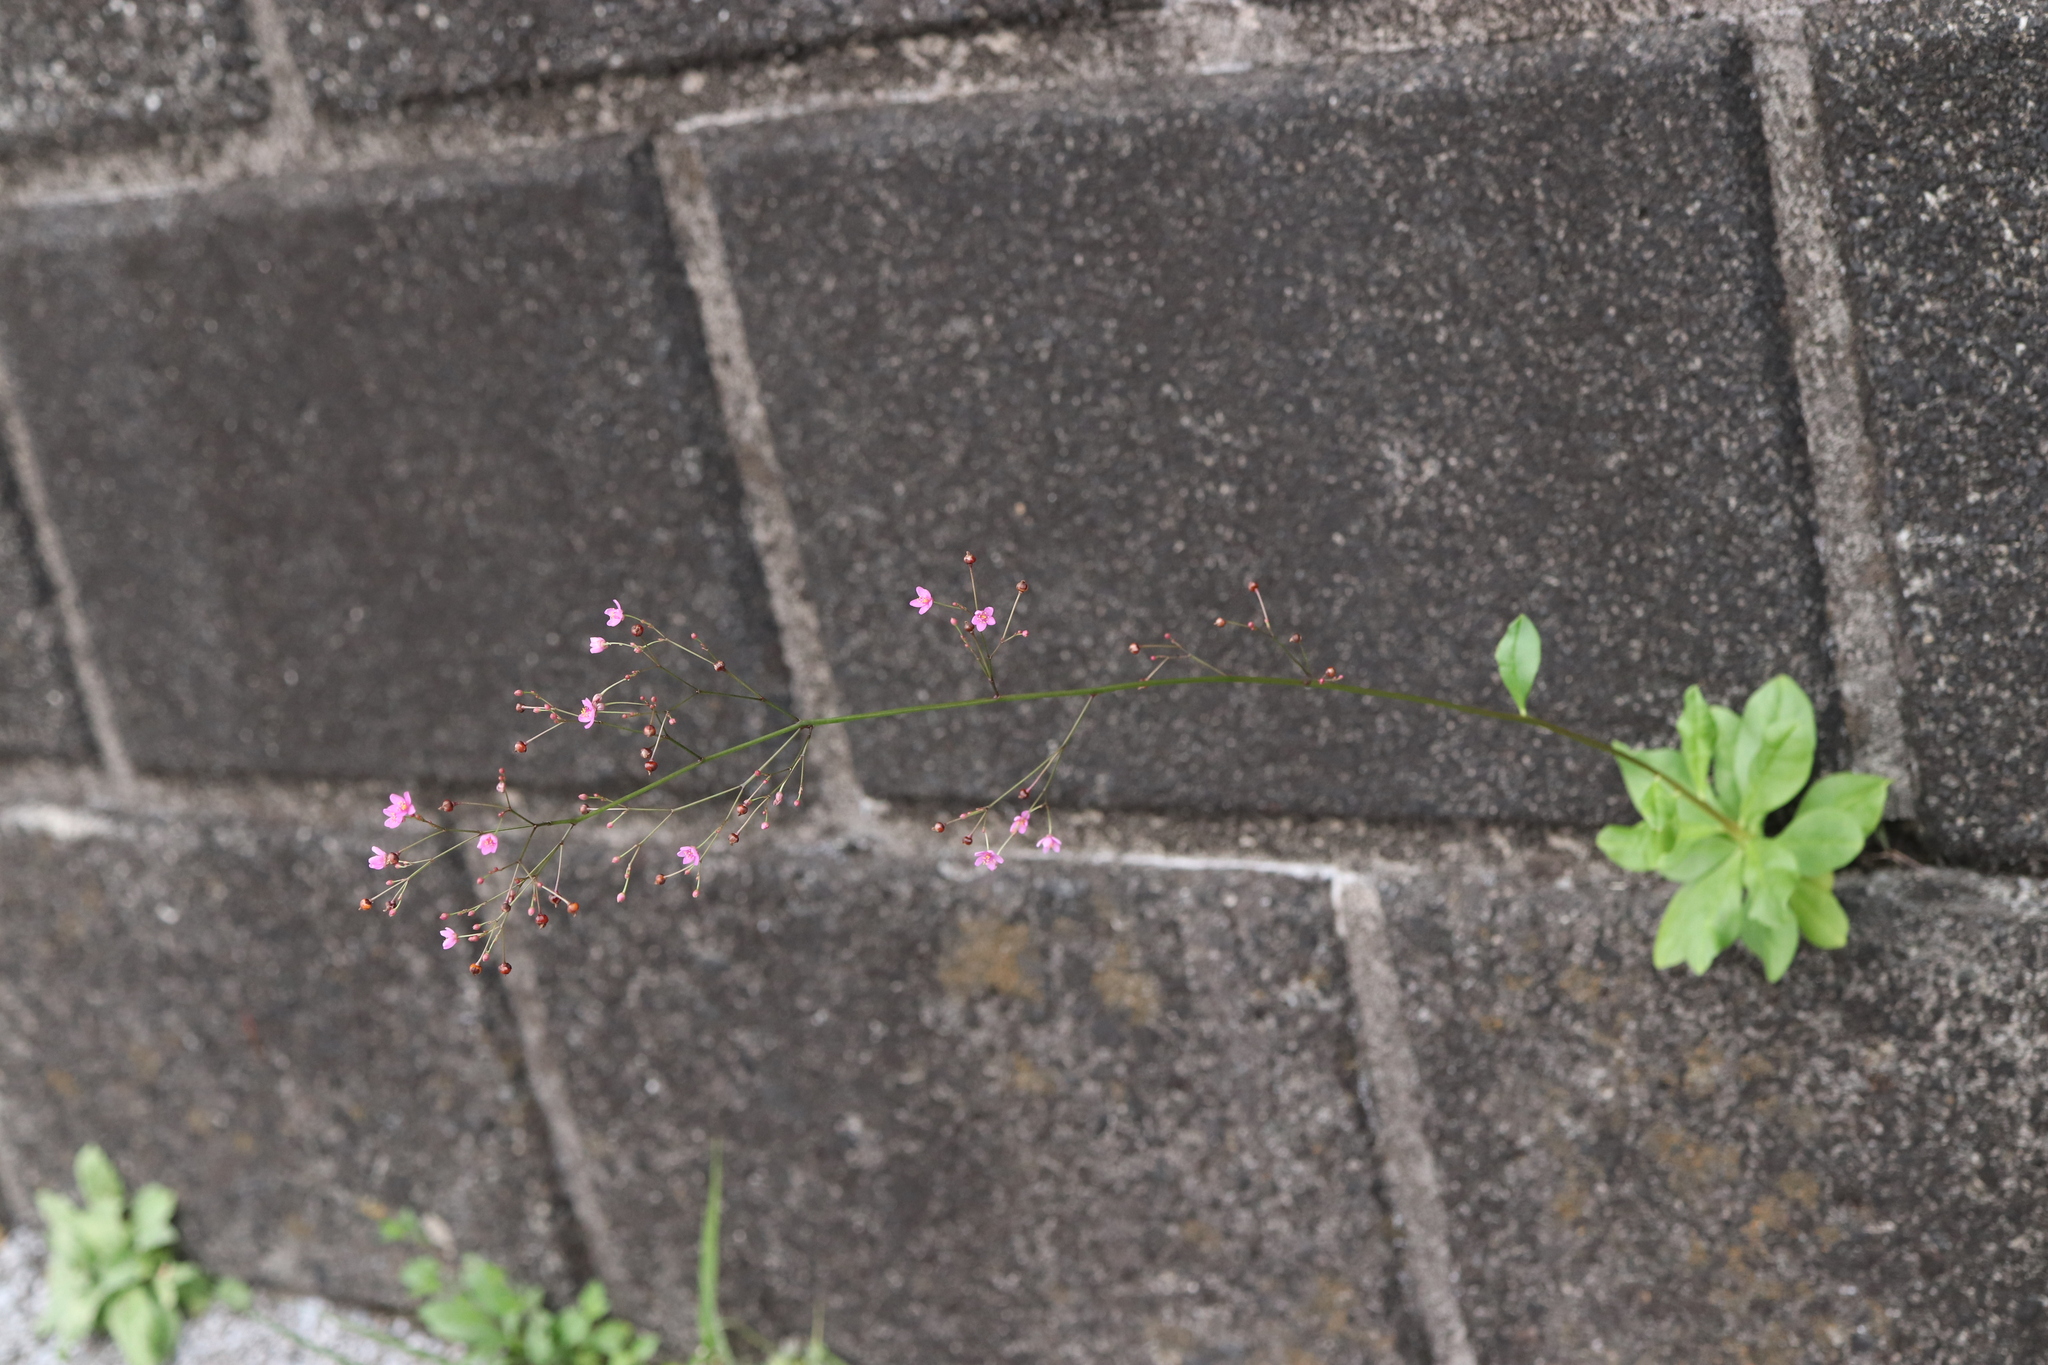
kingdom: Plantae
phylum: Tracheophyta
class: Magnoliopsida
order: Caryophyllales
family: Talinaceae
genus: Talinum
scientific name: Talinum paniculatum
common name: Jewels of opar
